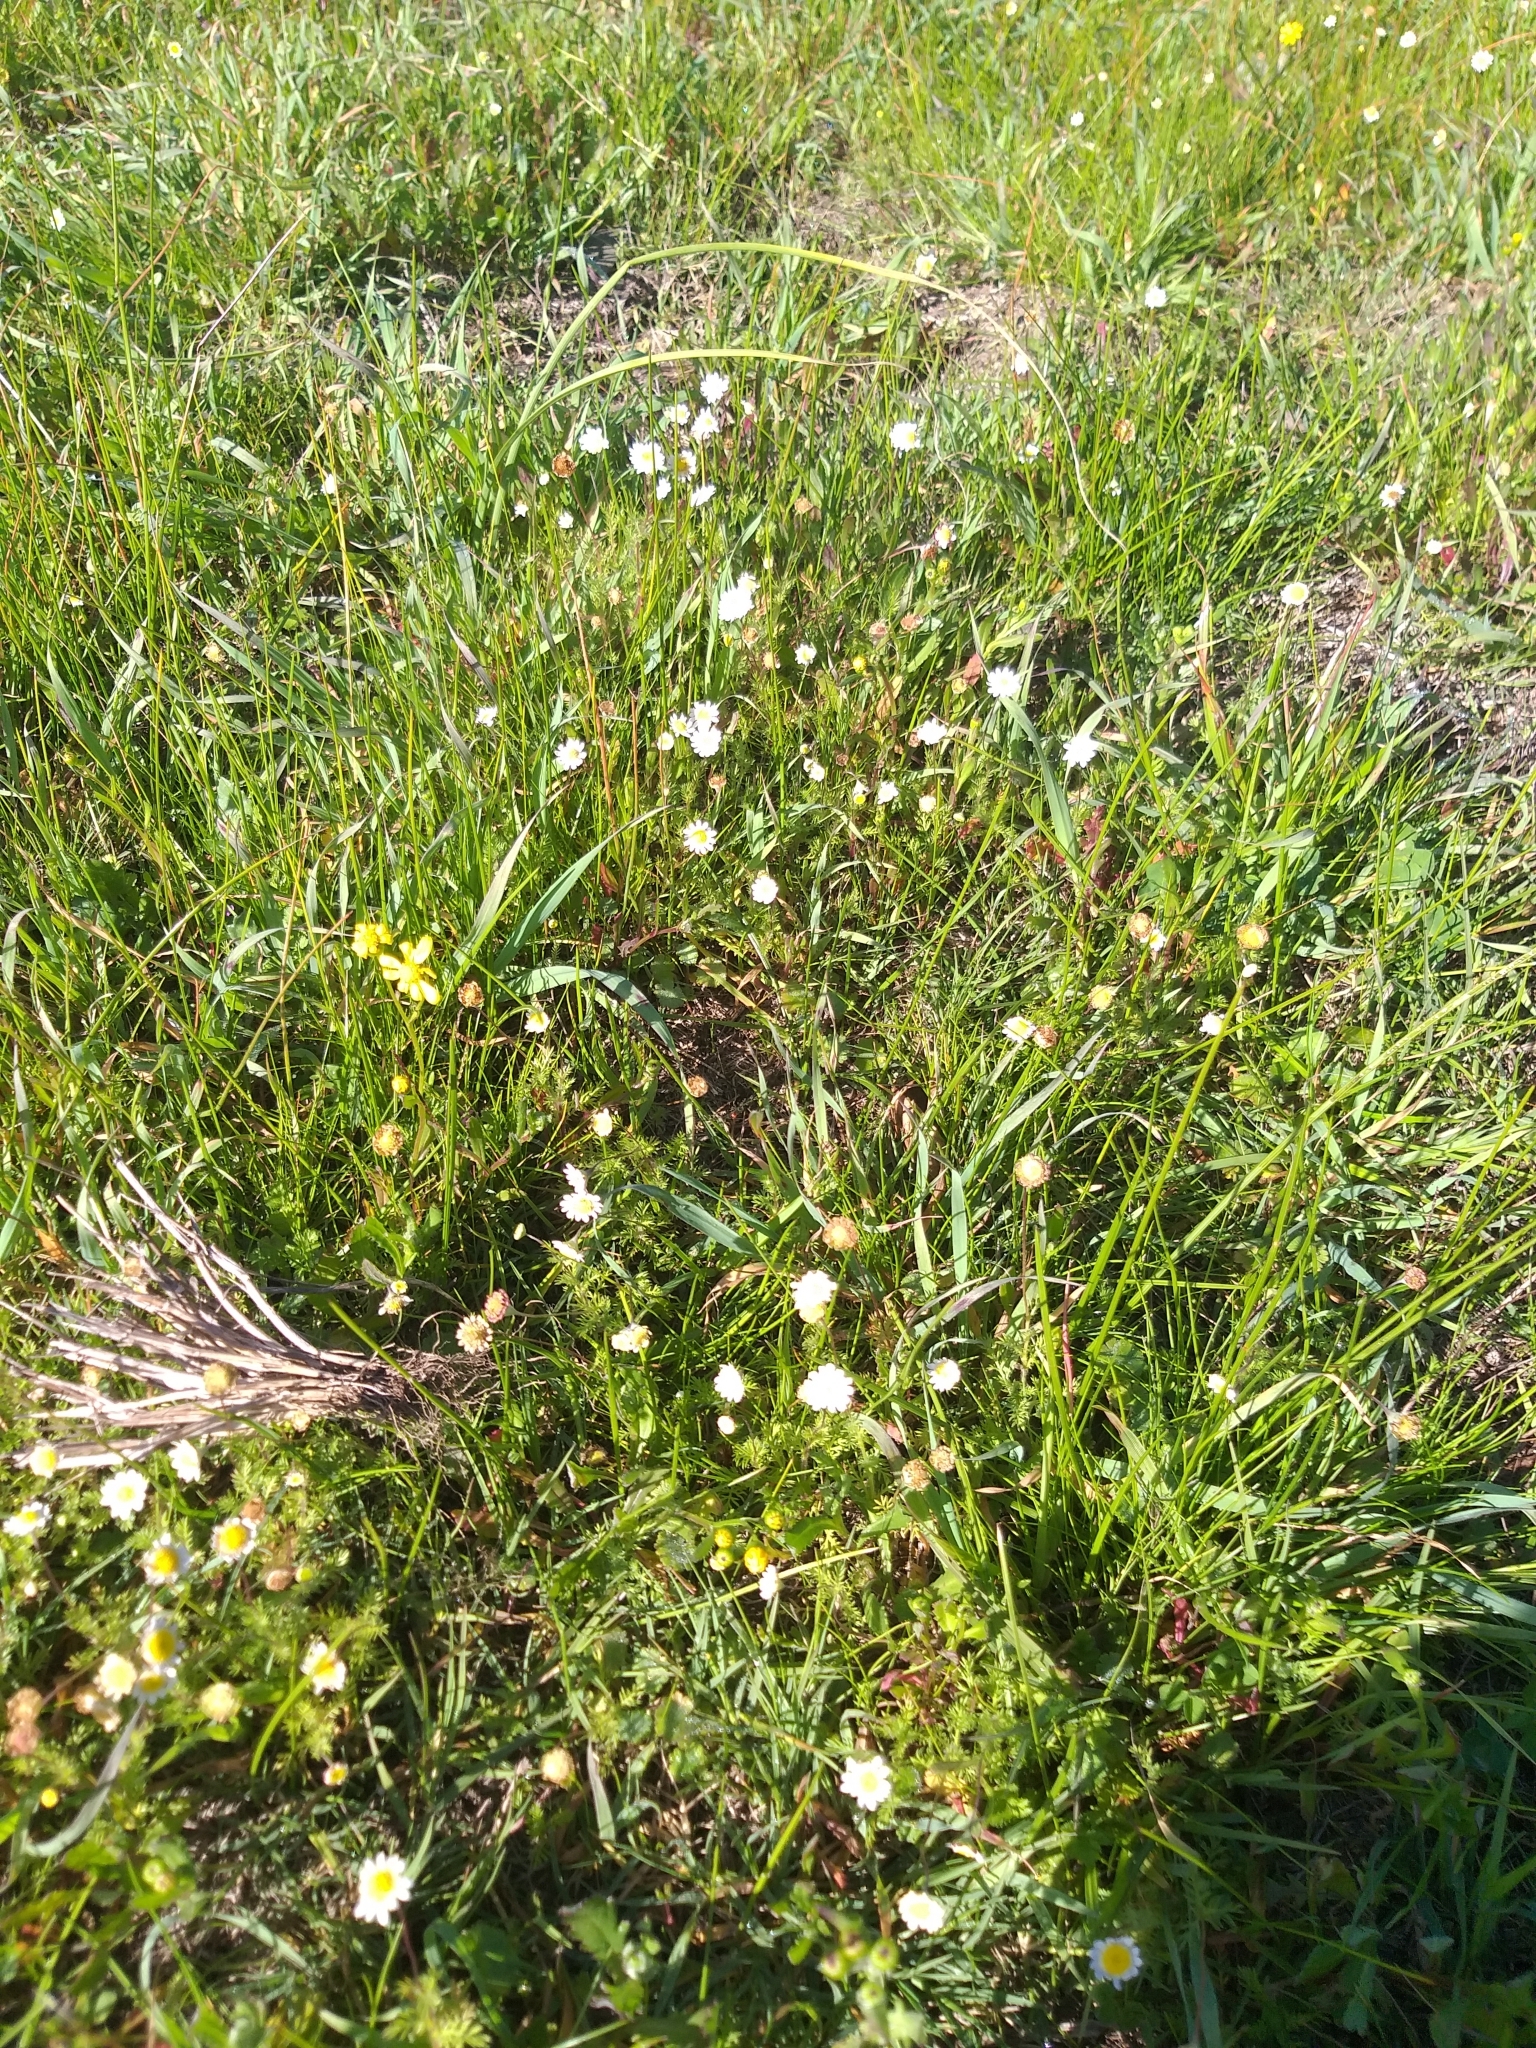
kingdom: Plantae
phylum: Tracheophyta
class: Magnoliopsida
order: Asterales
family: Asteraceae
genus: Cotula
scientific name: Cotula turbinata
